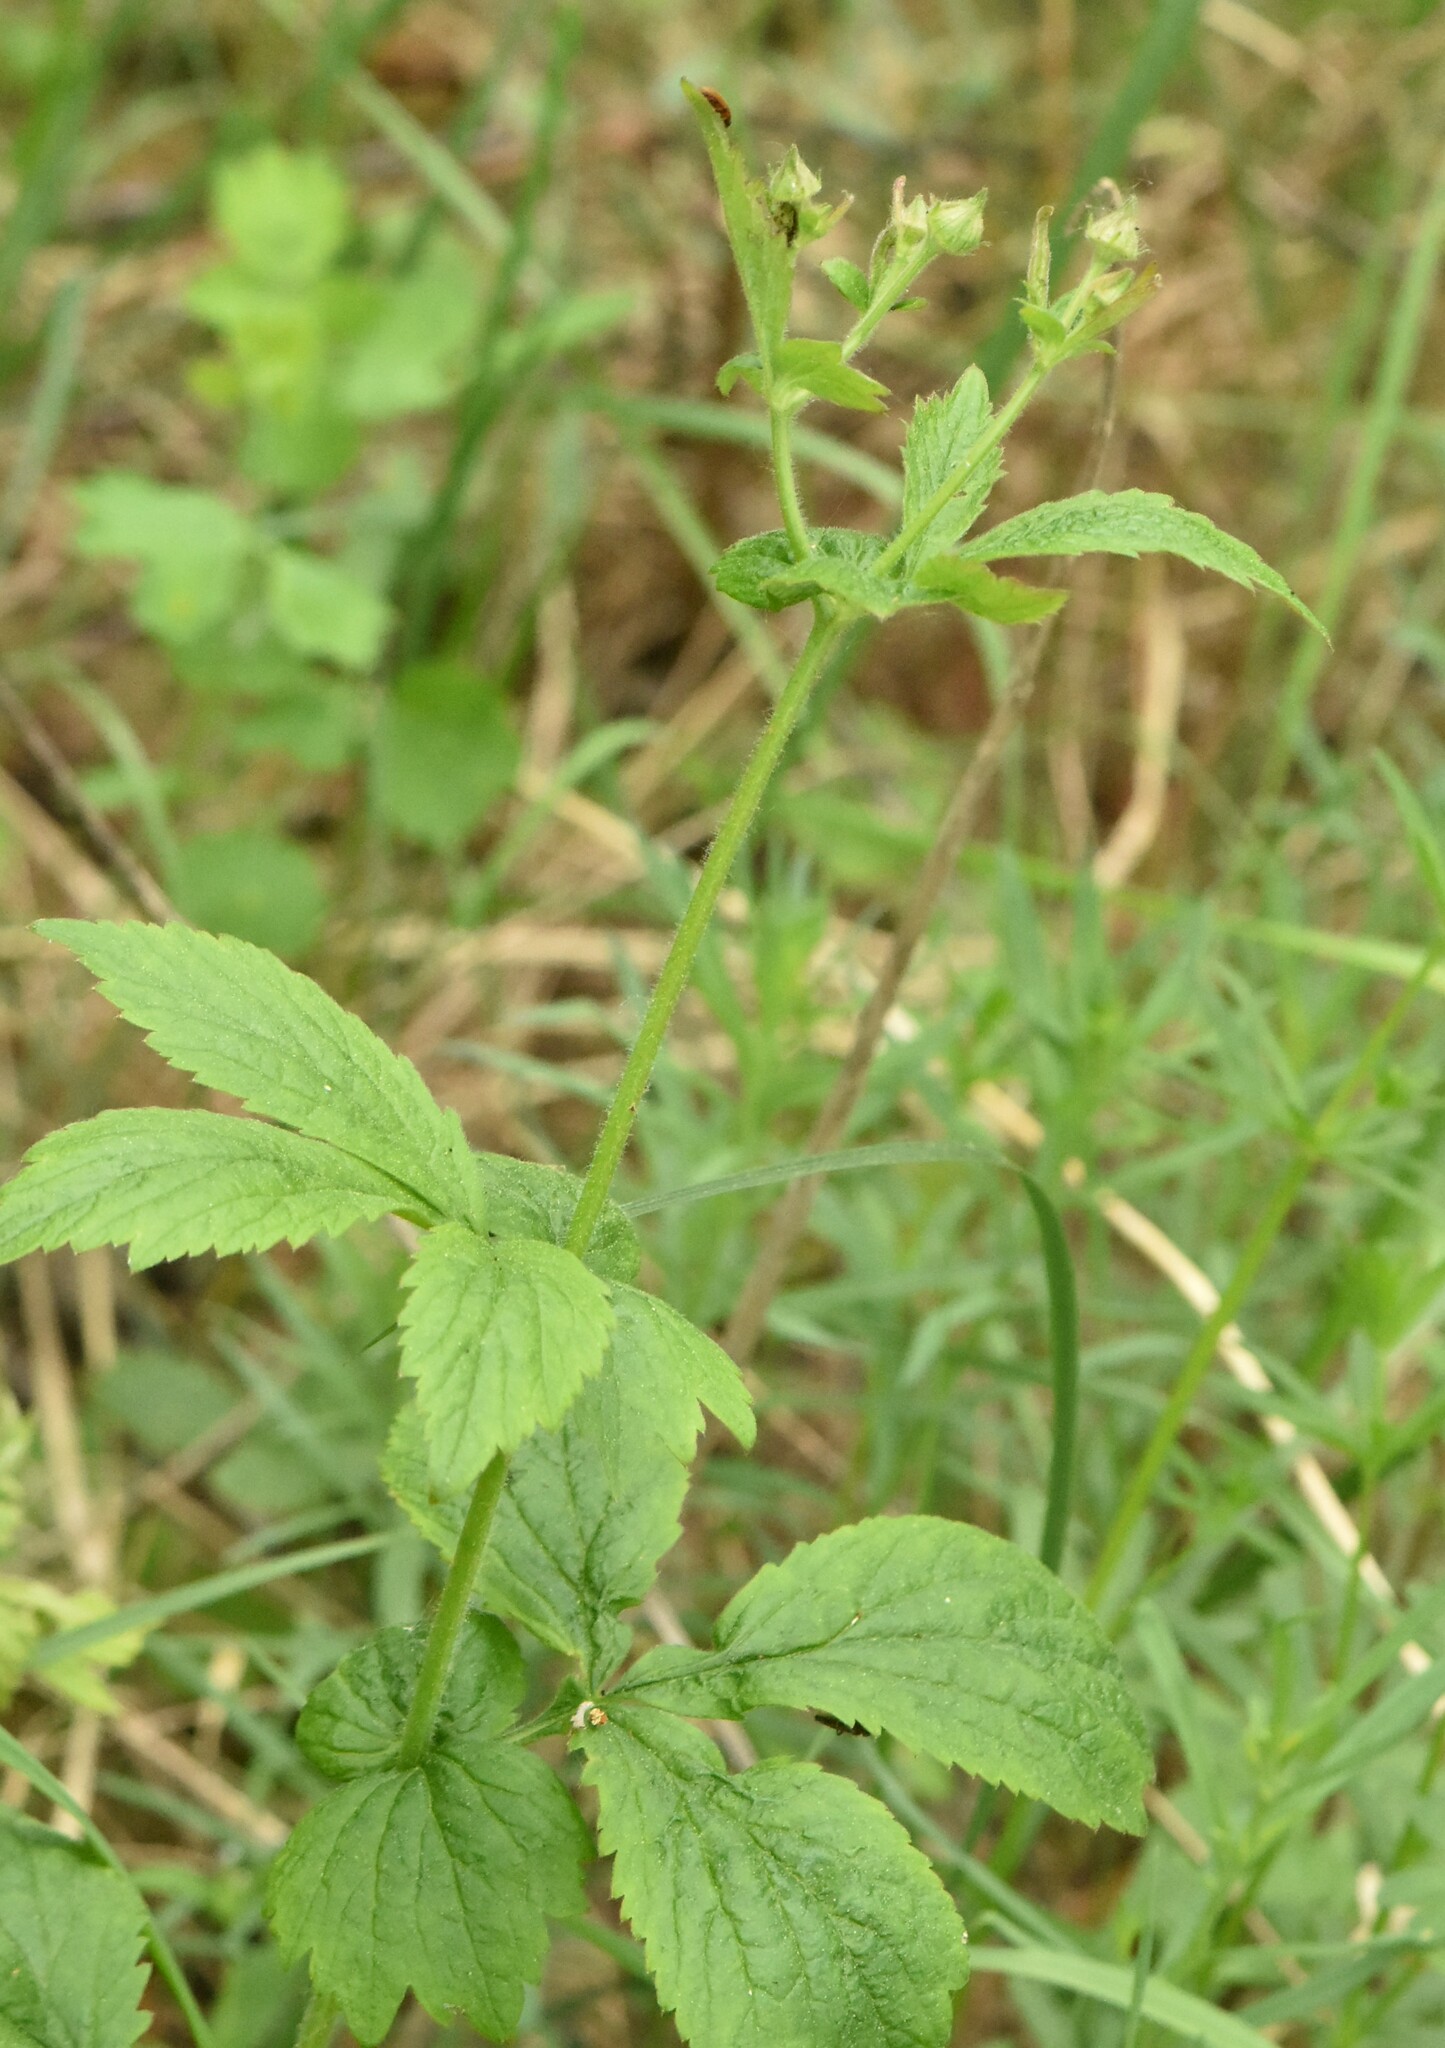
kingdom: Plantae
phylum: Tracheophyta
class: Magnoliopsida
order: Rosales
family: Rosaceae
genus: Geum
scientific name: Geum urbanum
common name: Wood avens
